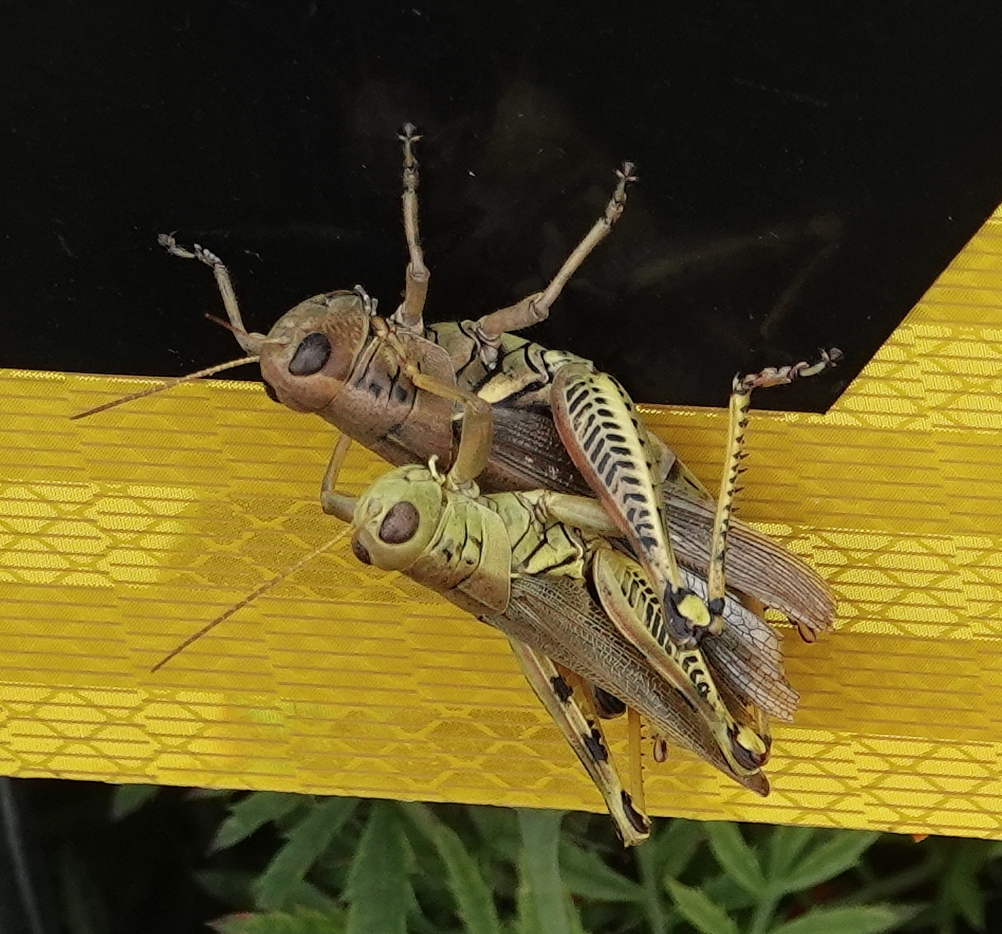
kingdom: Animalia
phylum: Arthropoda
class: Insecta
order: Orthoptera
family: Acrididae
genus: Melanoplus
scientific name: Melanoplus differentialis
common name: Differential grasshopper
